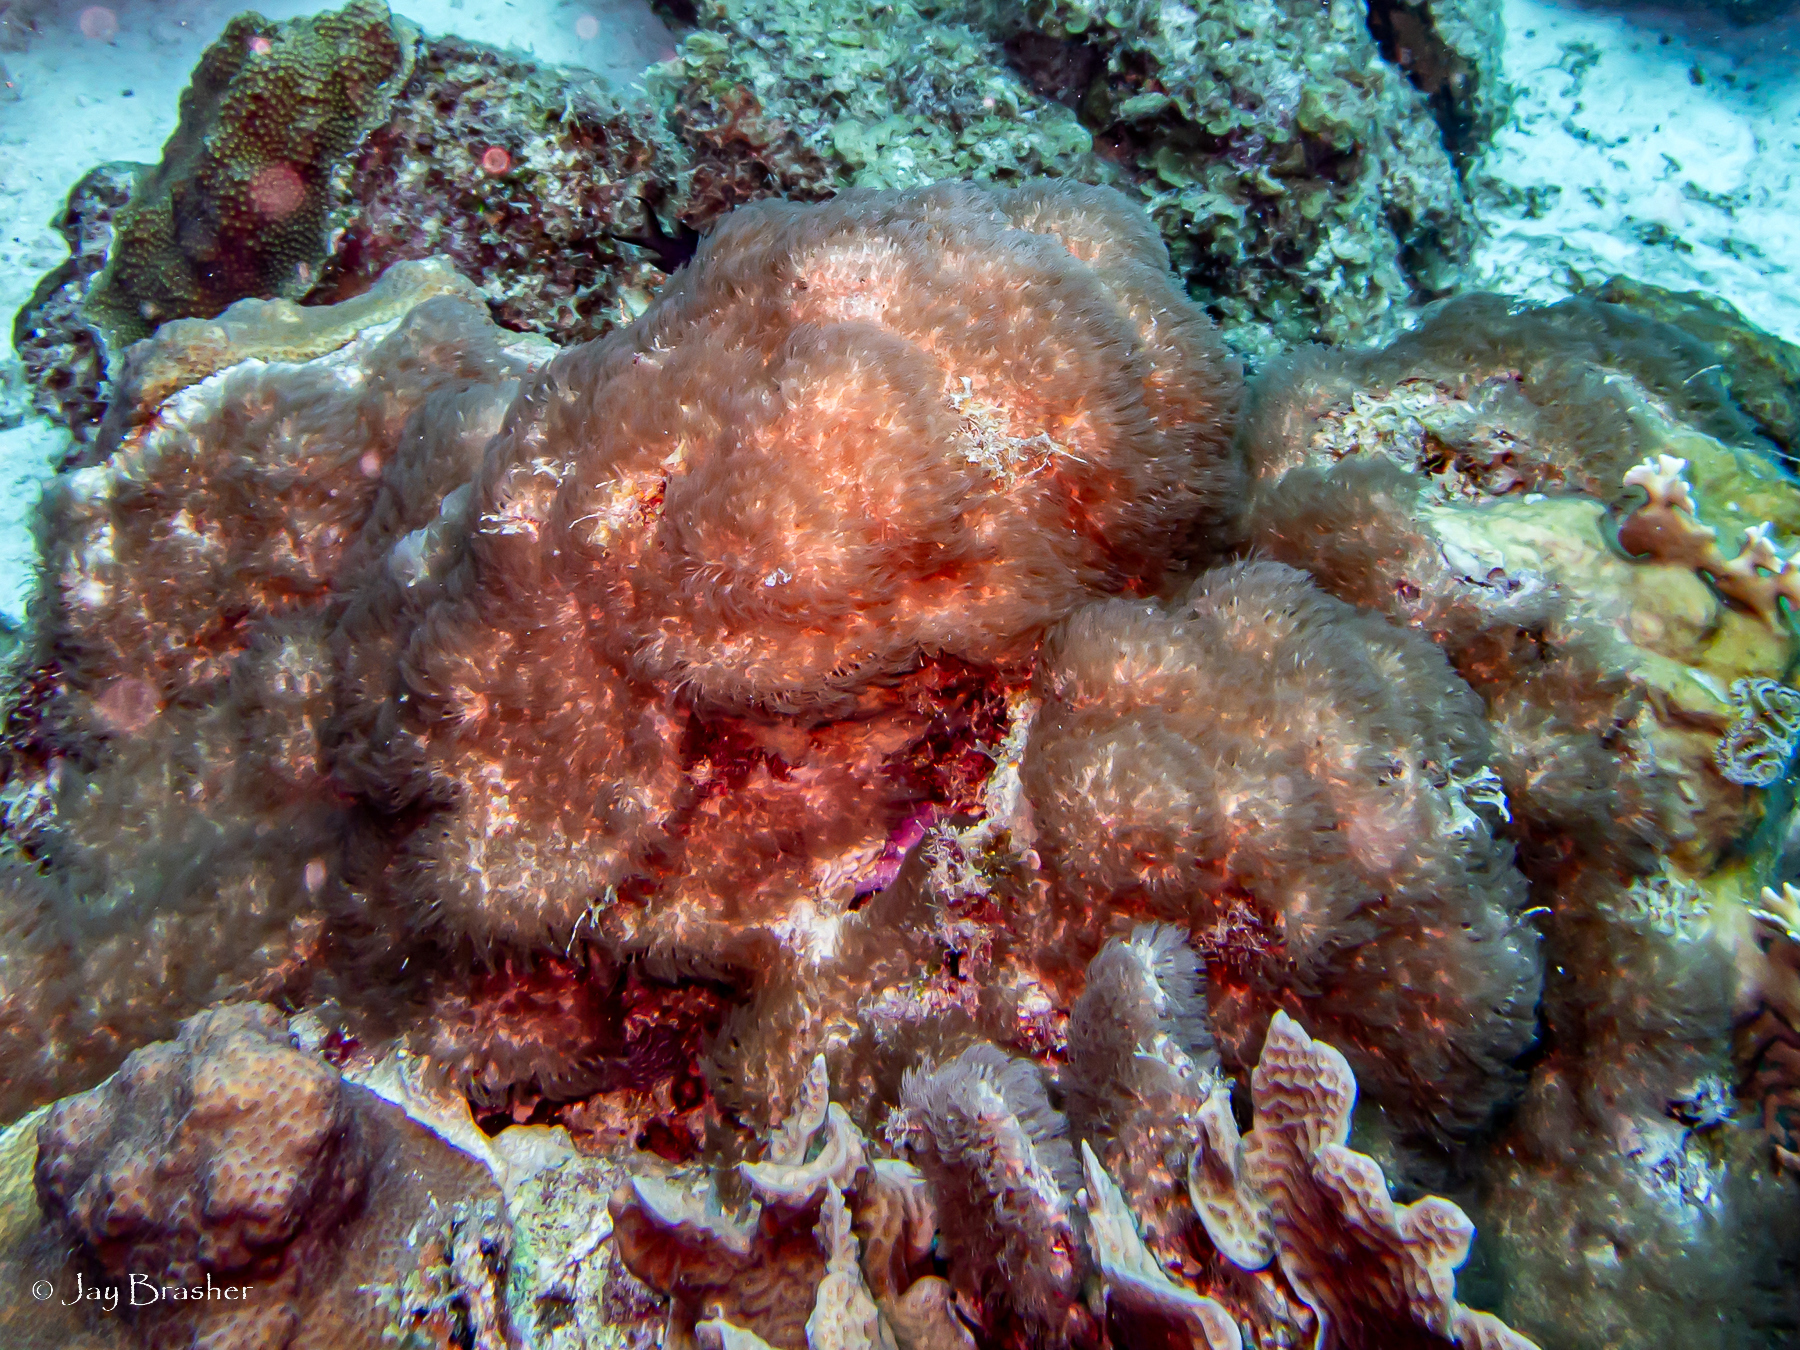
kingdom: Animalia
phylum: Cnidaria
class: Anthozoa
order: Scleralcyonacea
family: Erythropodiidae
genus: Erythropodium
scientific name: Erythropodium caribaeorum
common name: Encrusting gorgonian
